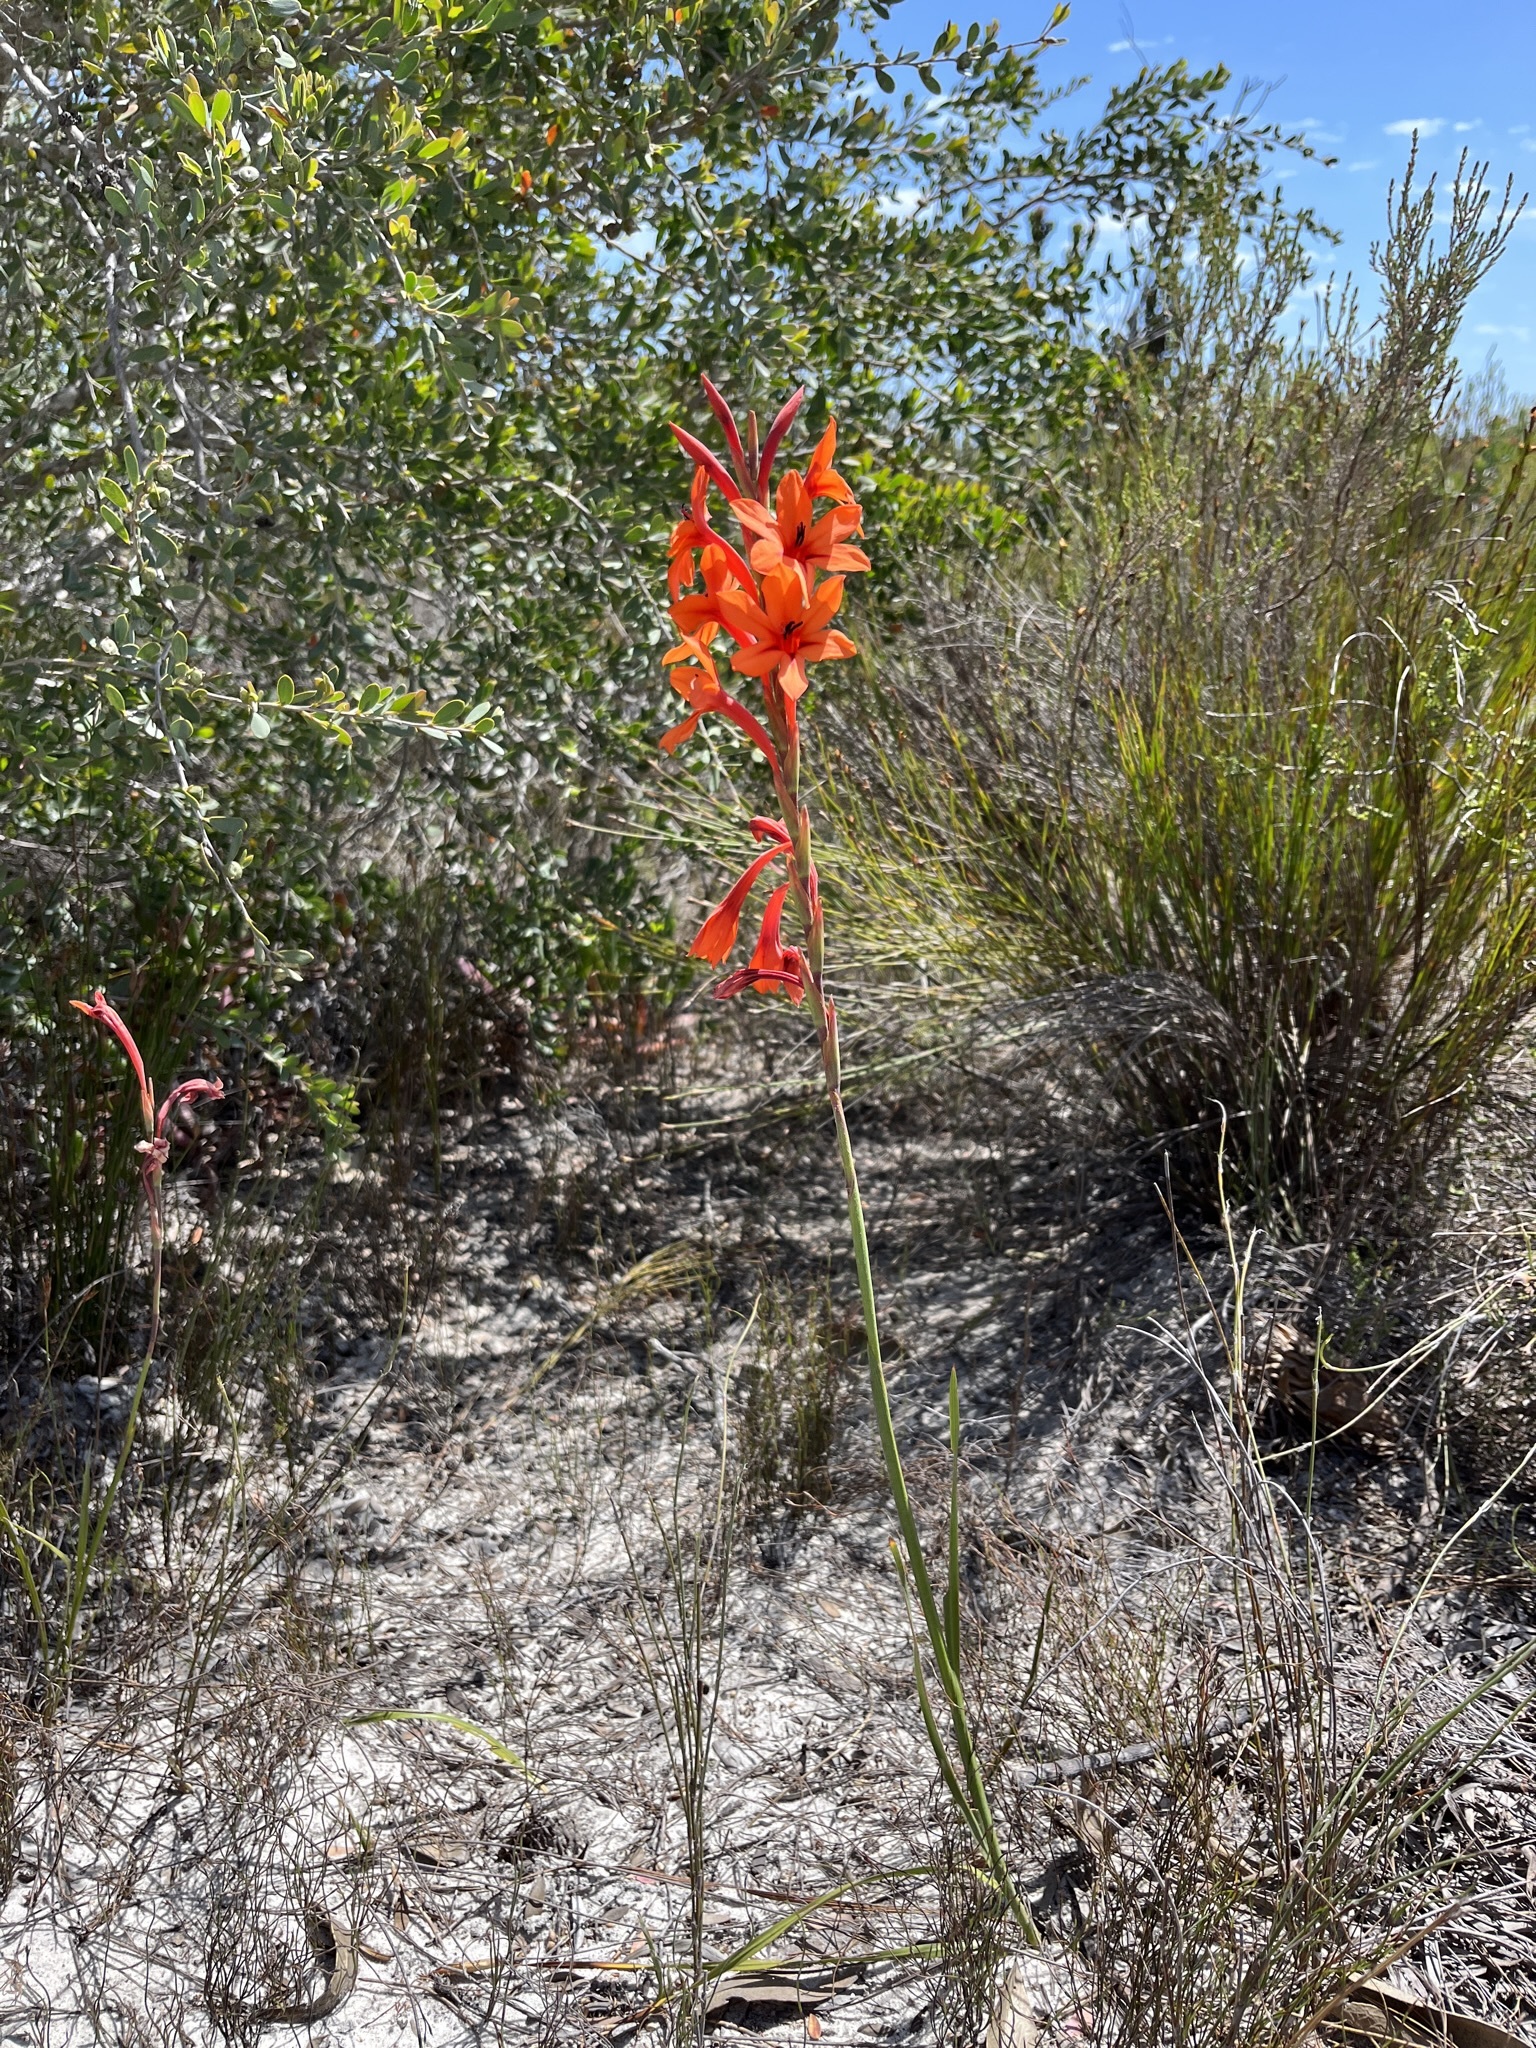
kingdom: Plantae
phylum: Tracheophyta
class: Liliopsida
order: Asparagales
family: Iridaceae
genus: Watsonia
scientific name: Watsonia stenosiphon
